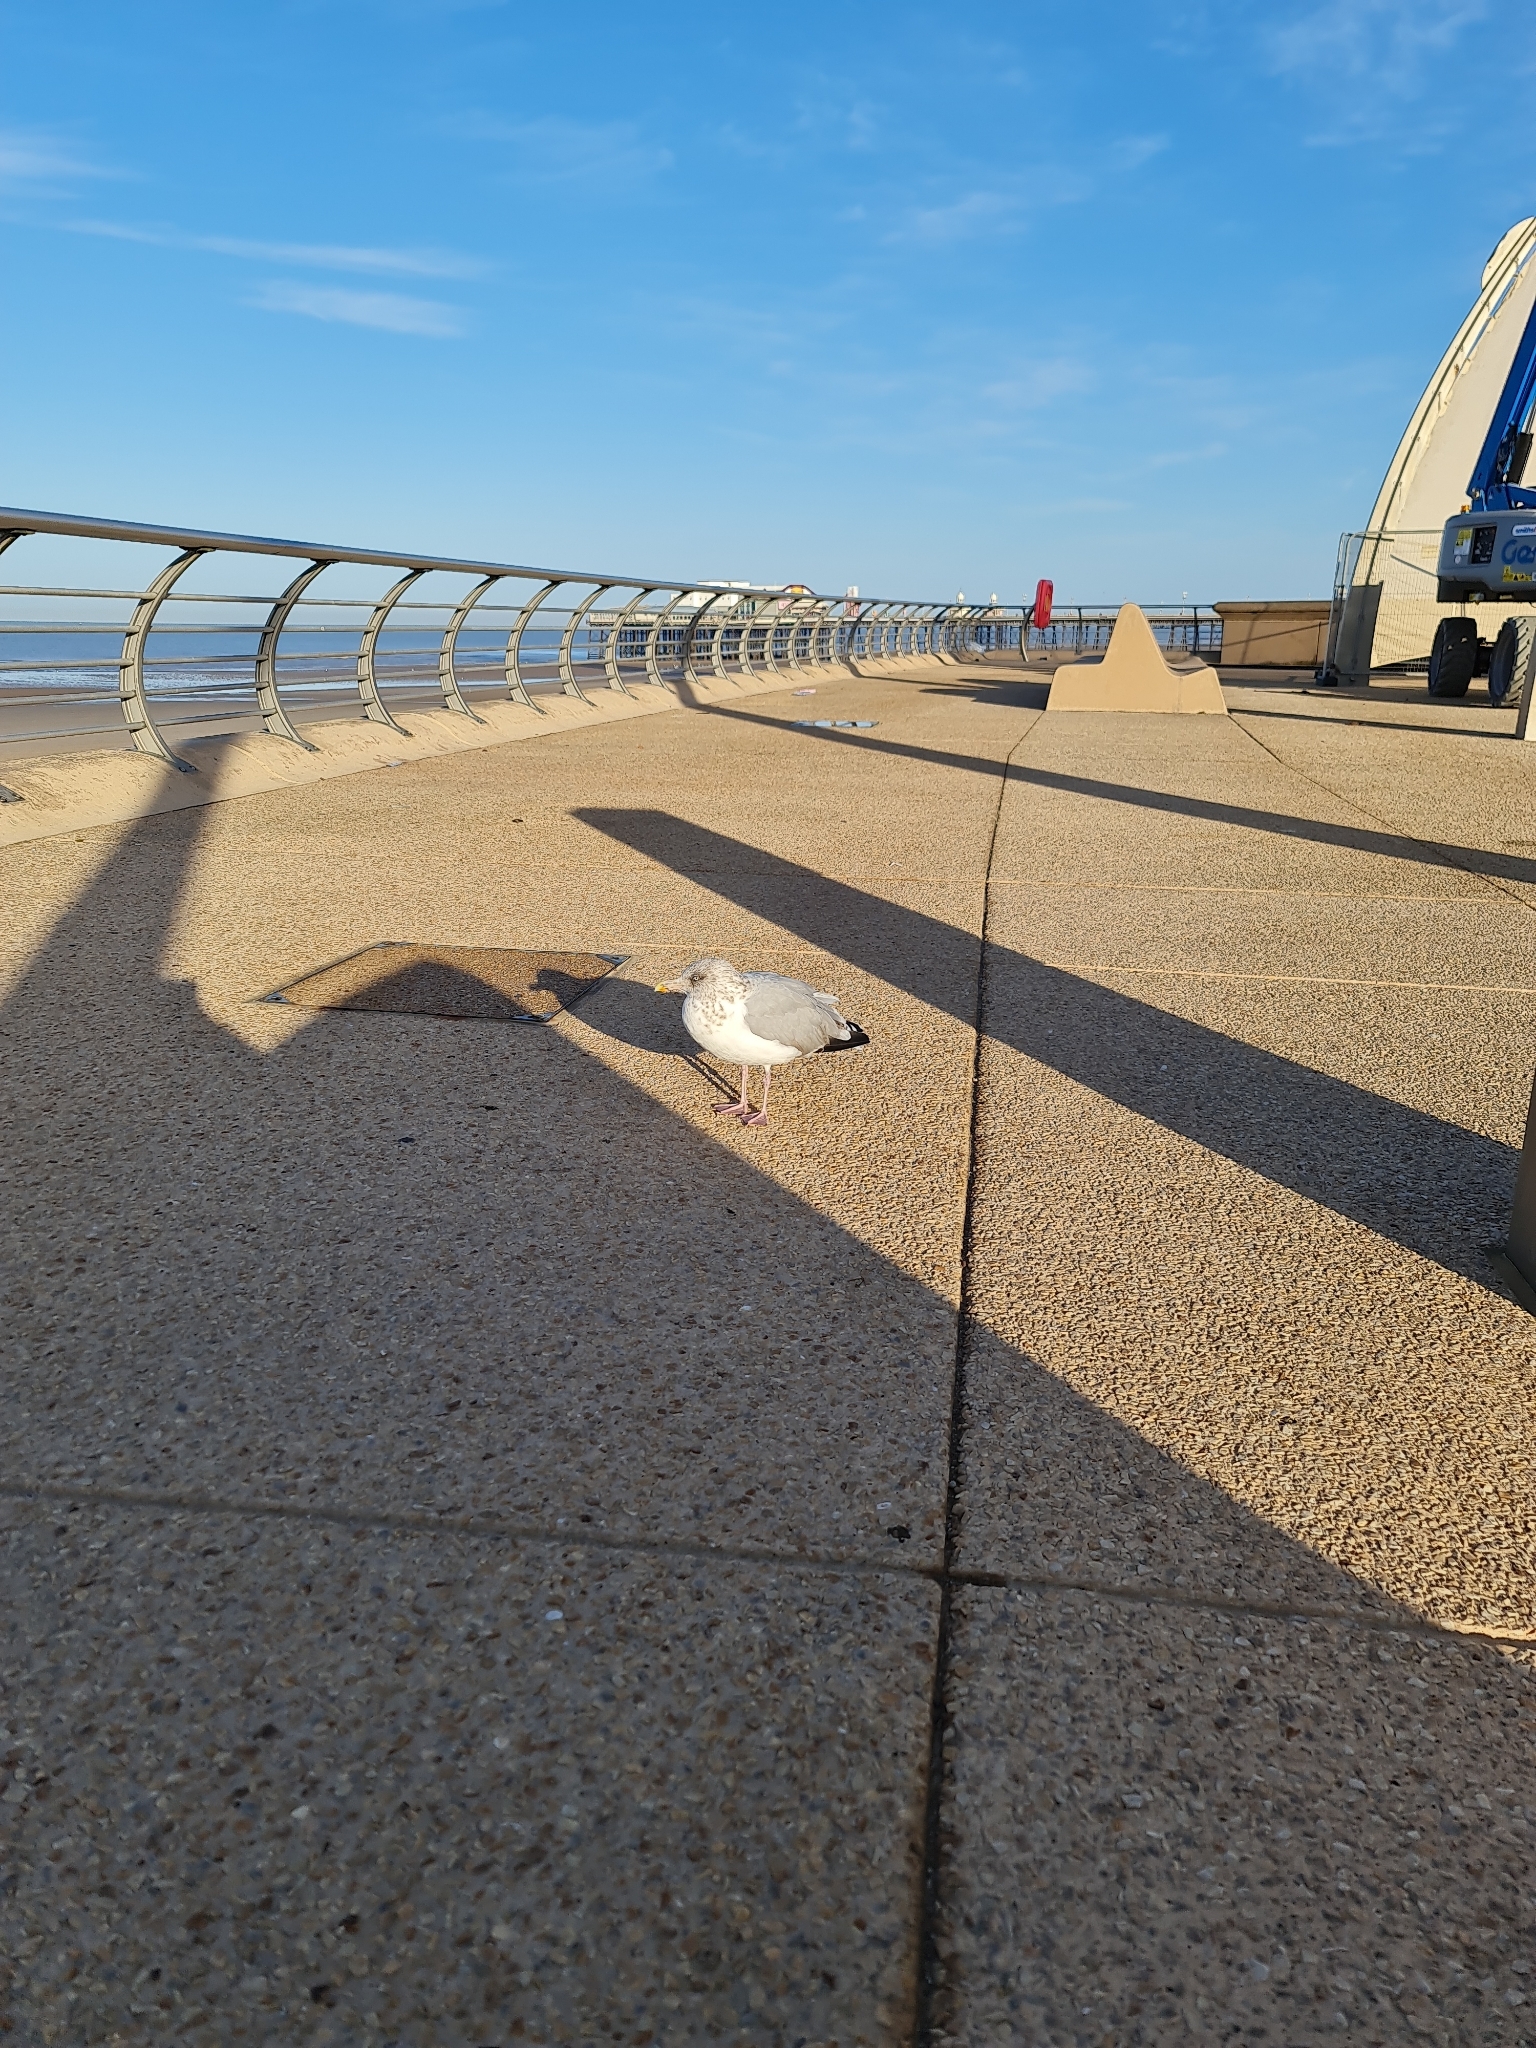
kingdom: Animalia
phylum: Chordata
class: Aves
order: Charadriiformes
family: Laridae
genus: Larus
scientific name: Larus argentatus
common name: Herring gull
